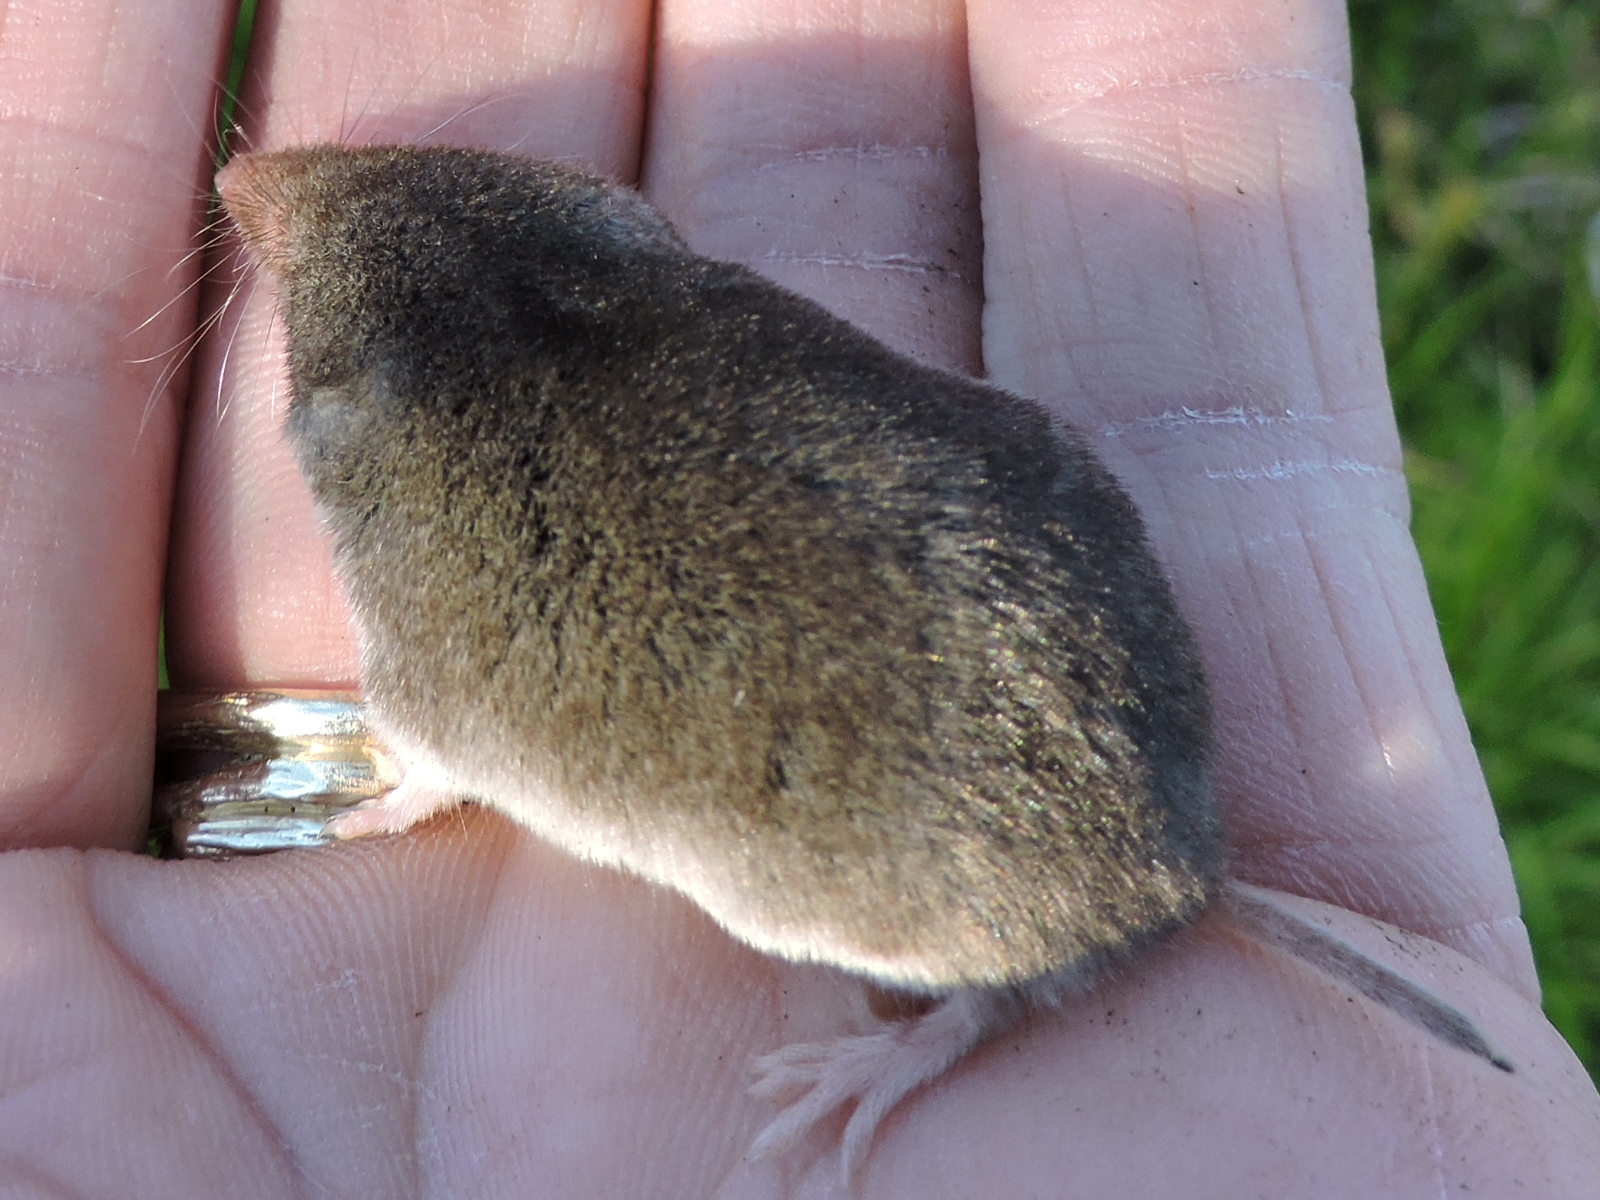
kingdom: Animalia
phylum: Chordata
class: Mammalia
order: Soricomorpha
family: Soricidae
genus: Cryptotis
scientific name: Cryptotis parva
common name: North american least shrew
